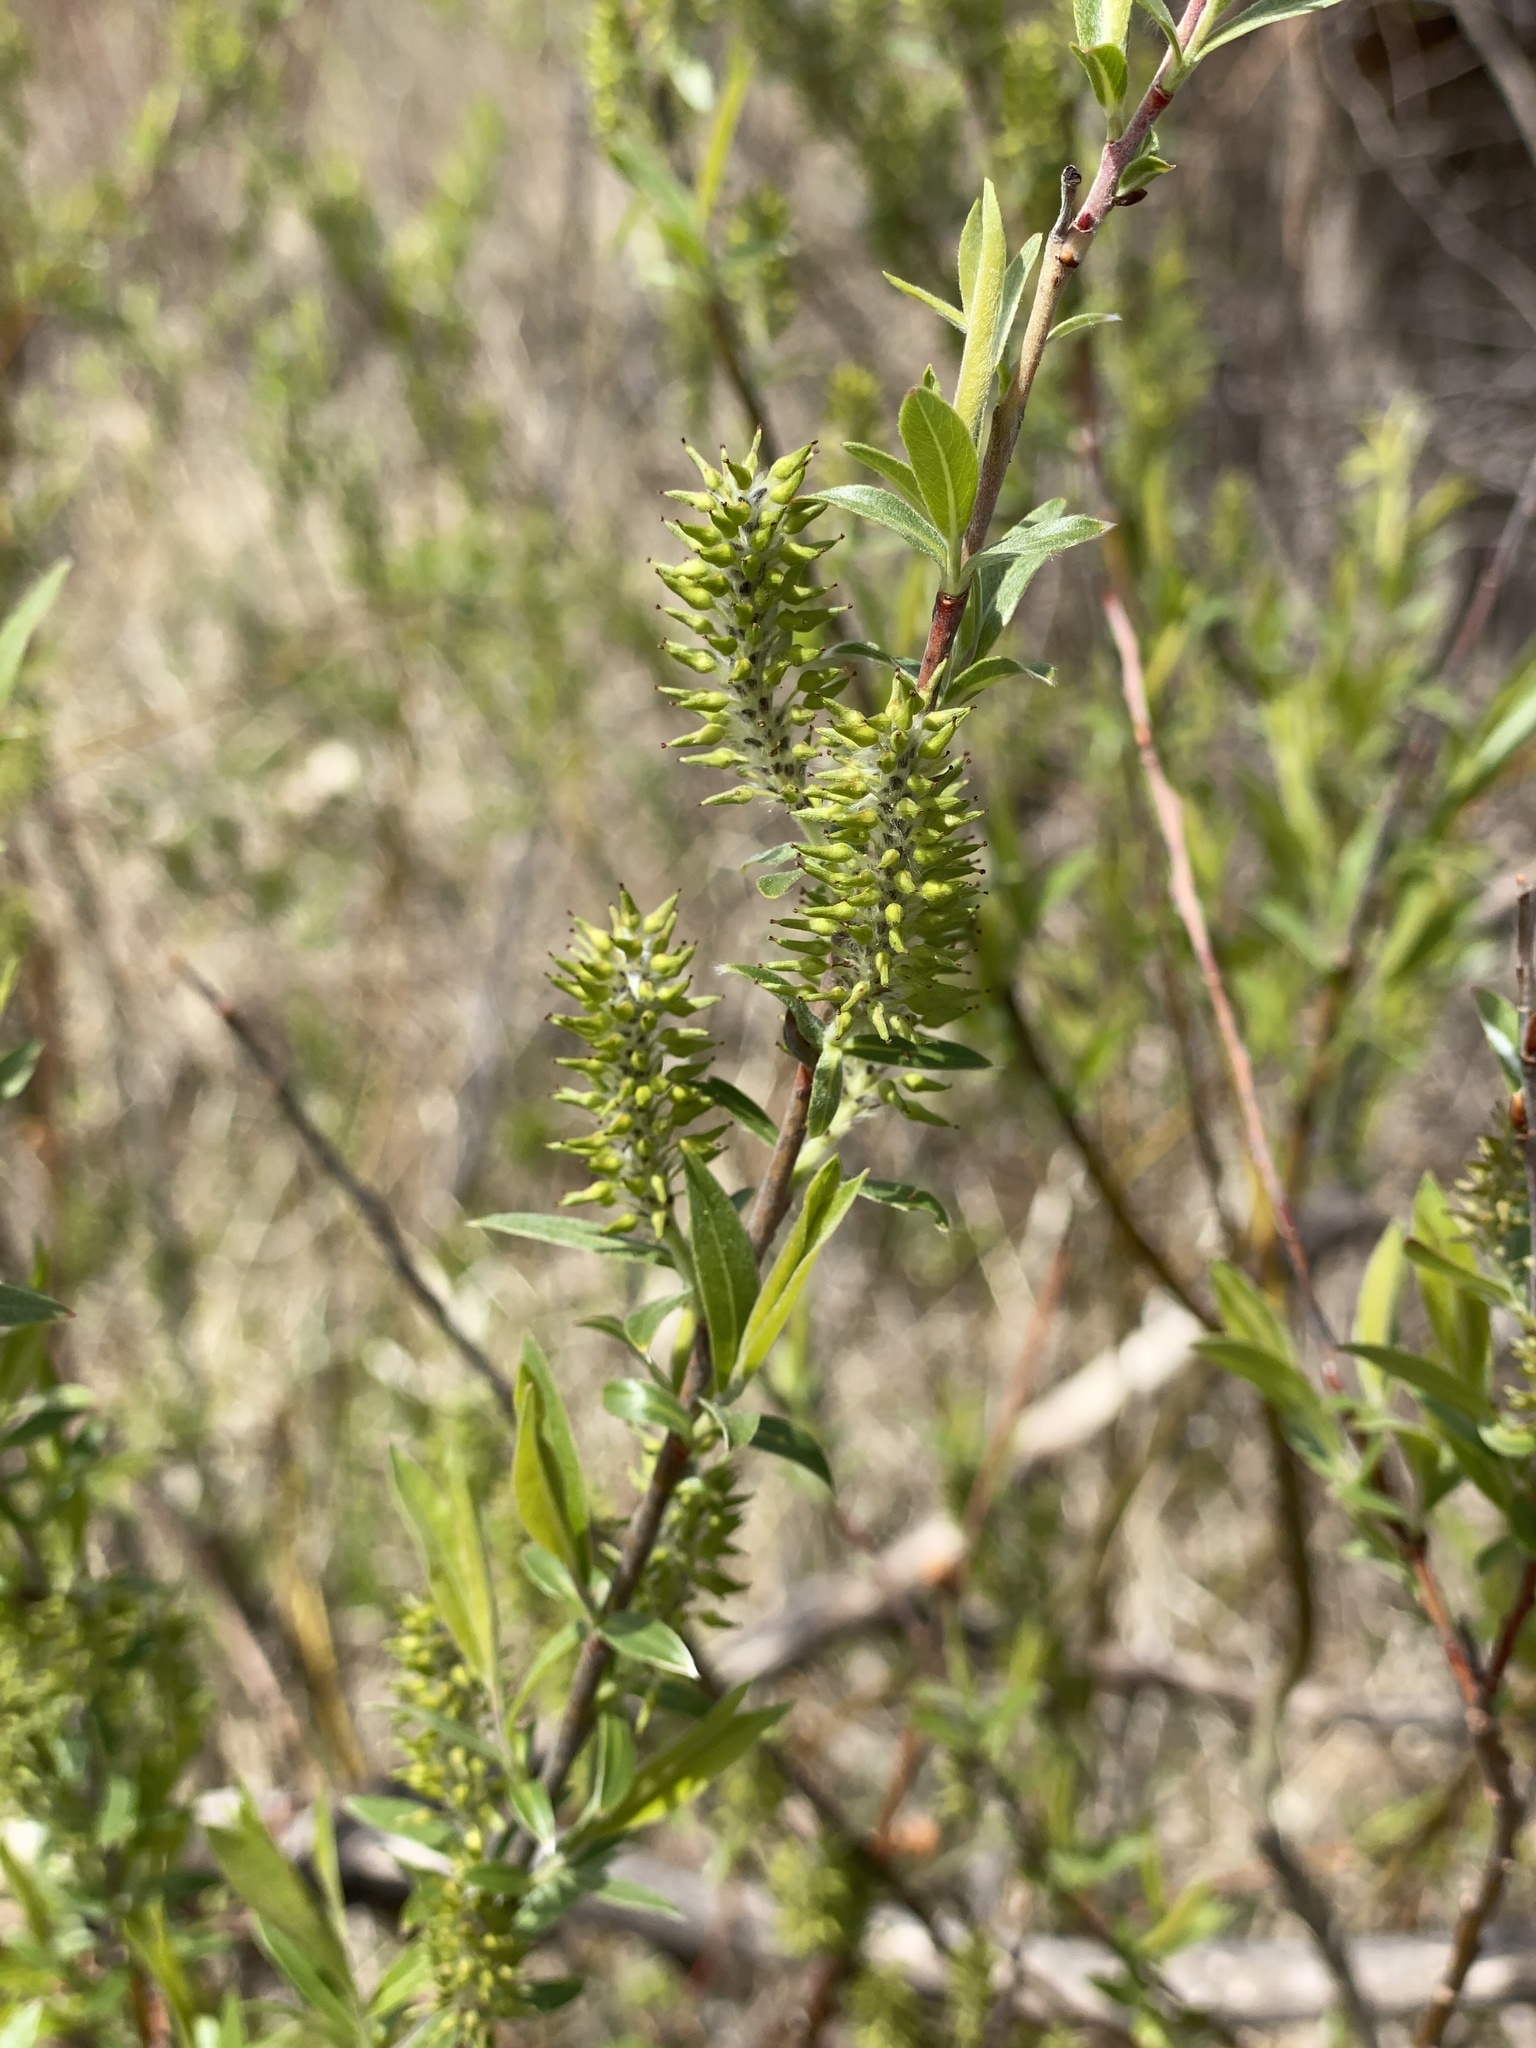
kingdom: Plantae
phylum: Tracheophyta
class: Magnoliopsida
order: Malpighiales
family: Salicaceae
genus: Salix
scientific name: Salix interior
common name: Sandbar willow
